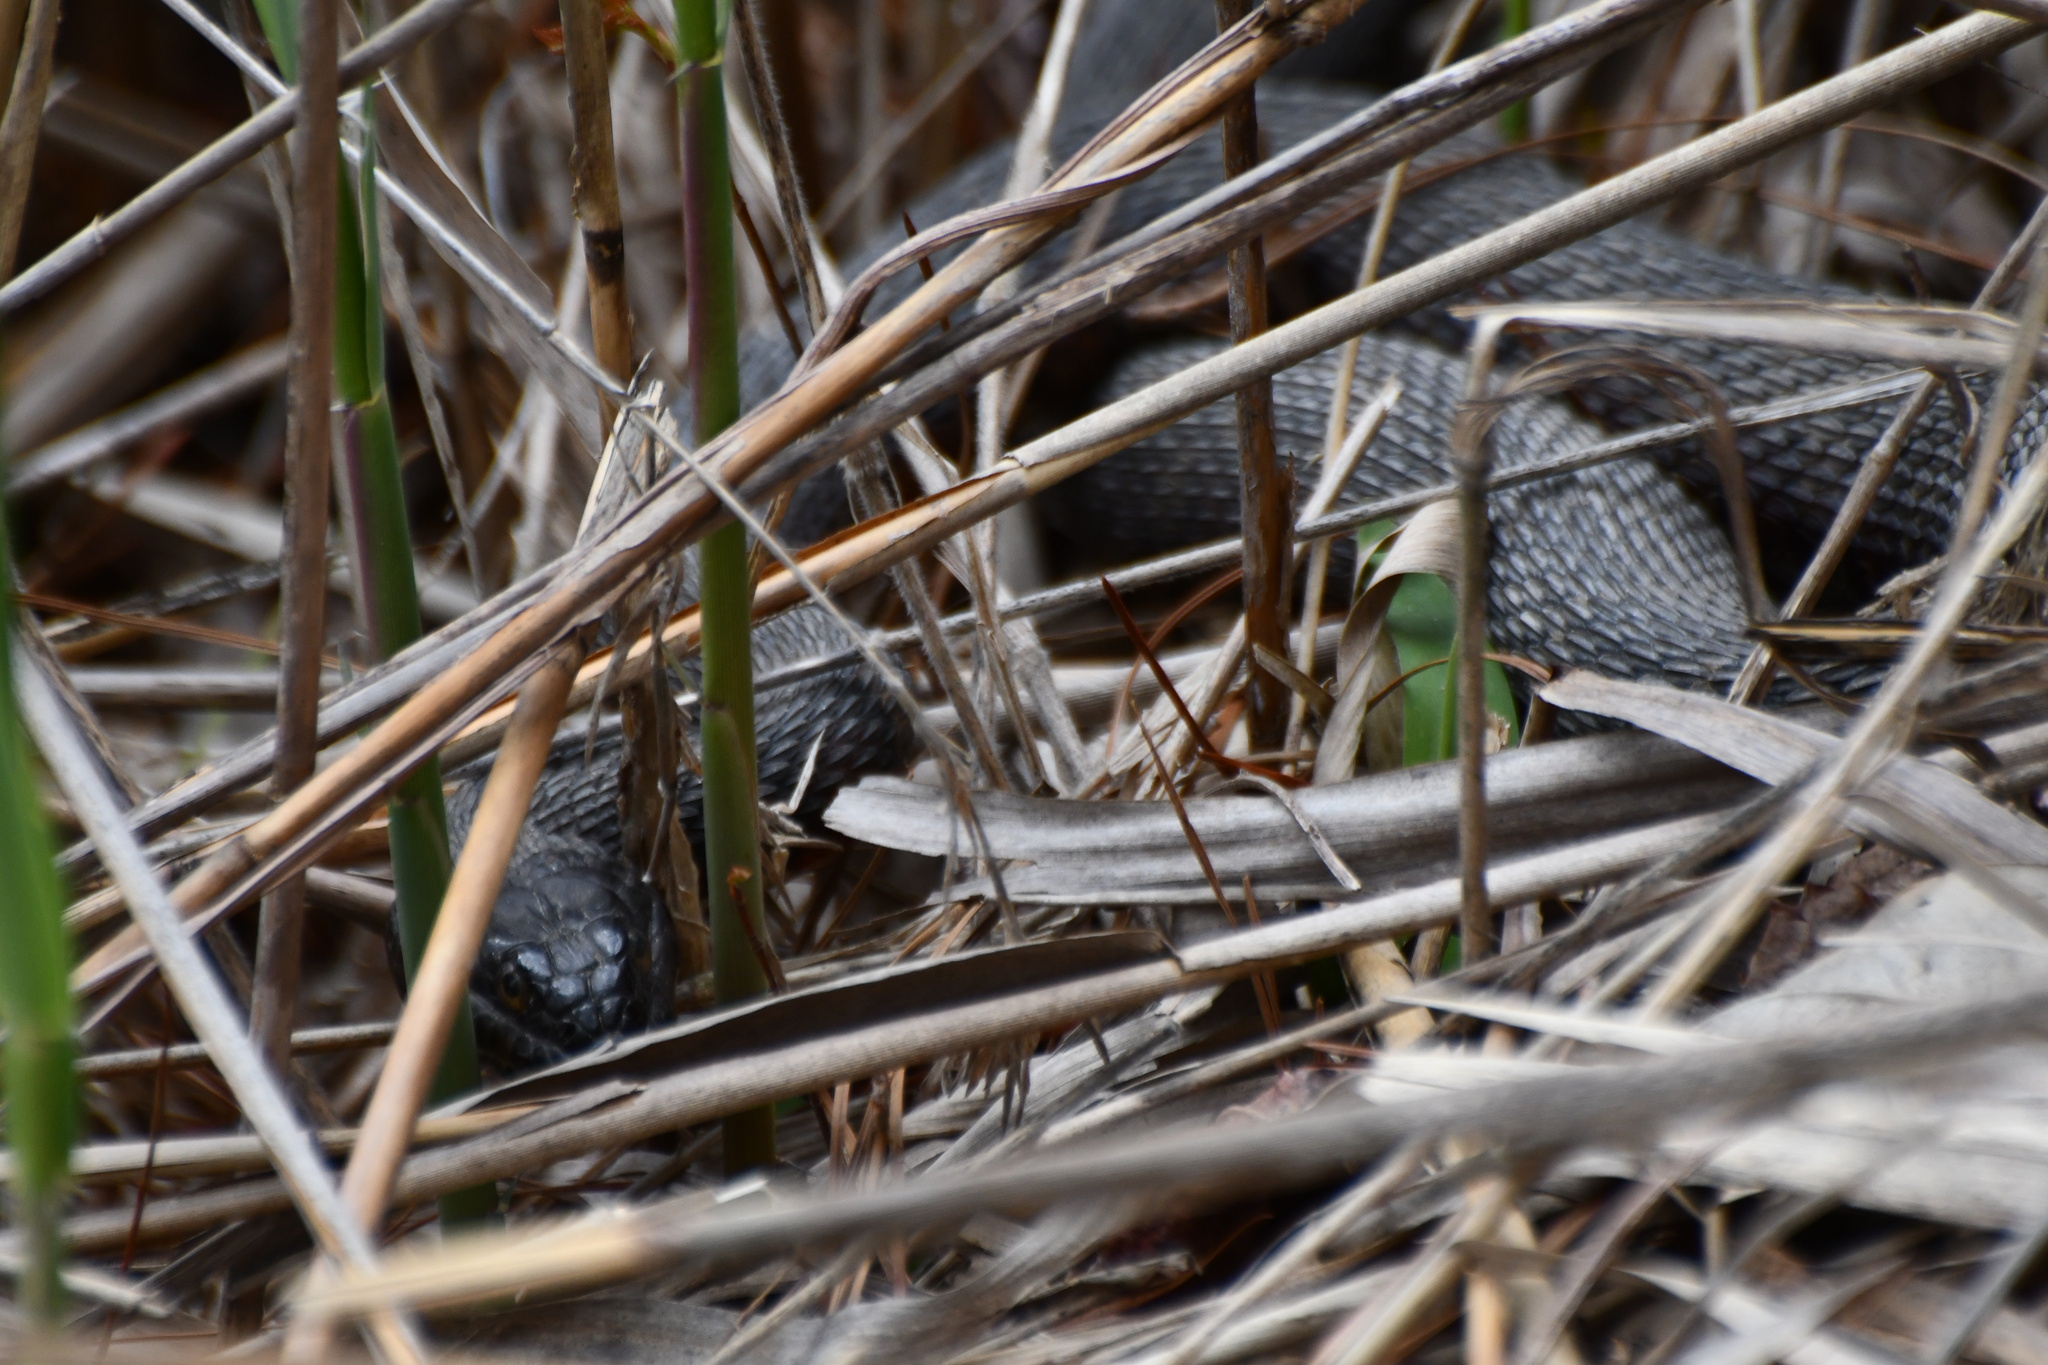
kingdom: Animalia
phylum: Chordata
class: Squamata
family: Colubridae
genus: Nerodia
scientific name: Nerodia sipedon
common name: Northern water snake
